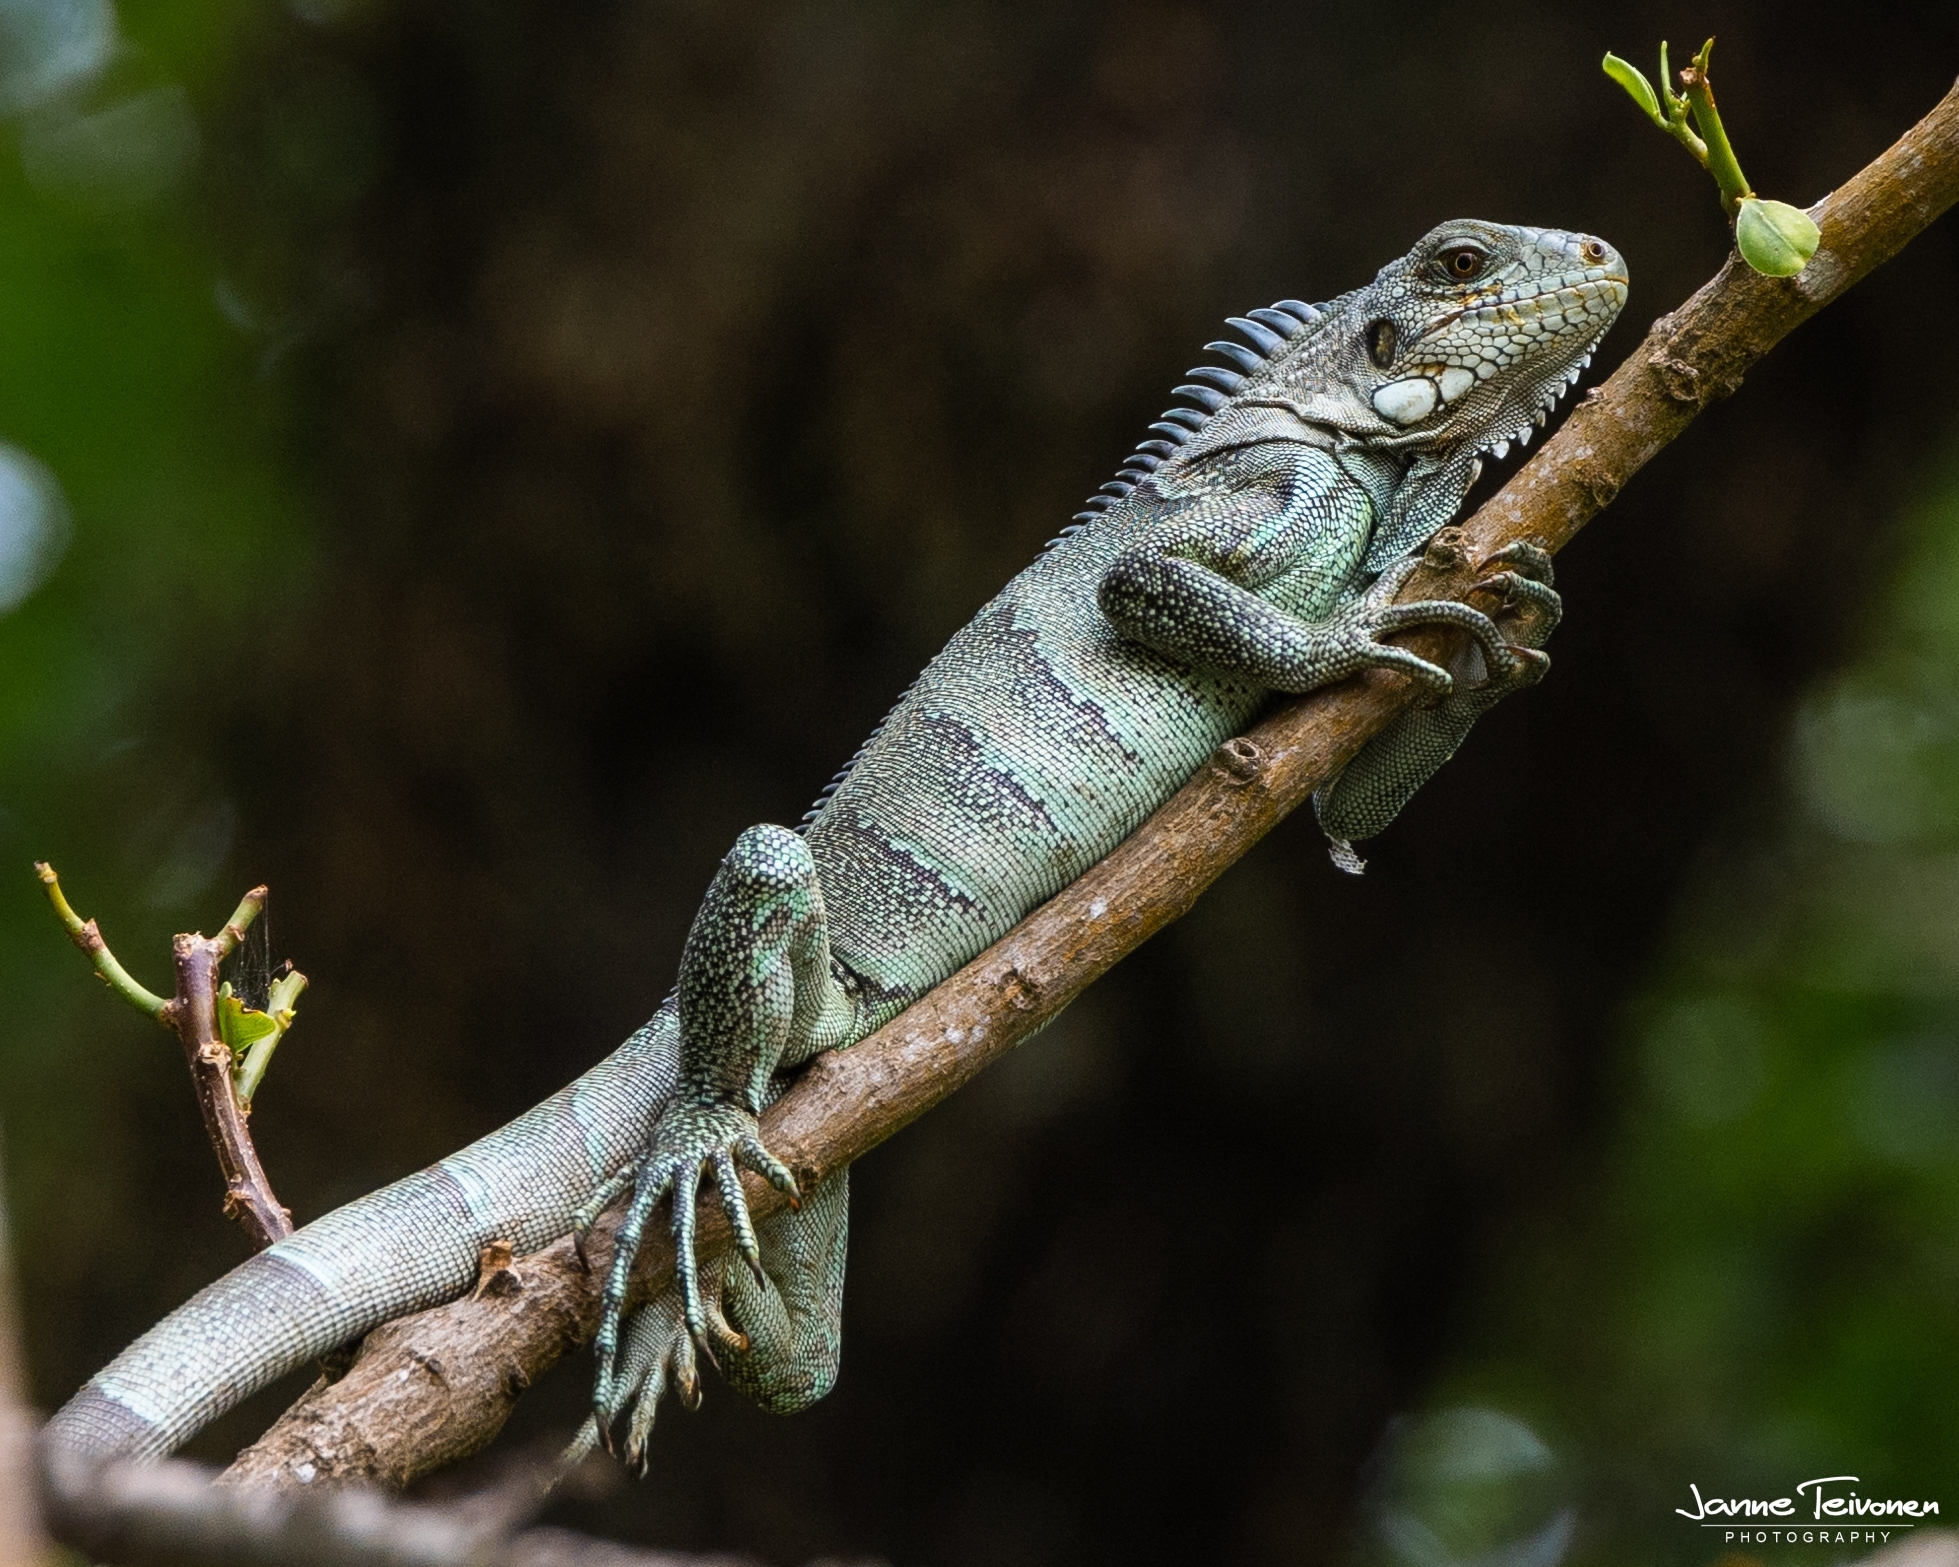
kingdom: Animalia
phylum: Chordata
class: Squamata
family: Iguanidae
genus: Iguana
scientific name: Iguana iguana
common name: Green iguana
